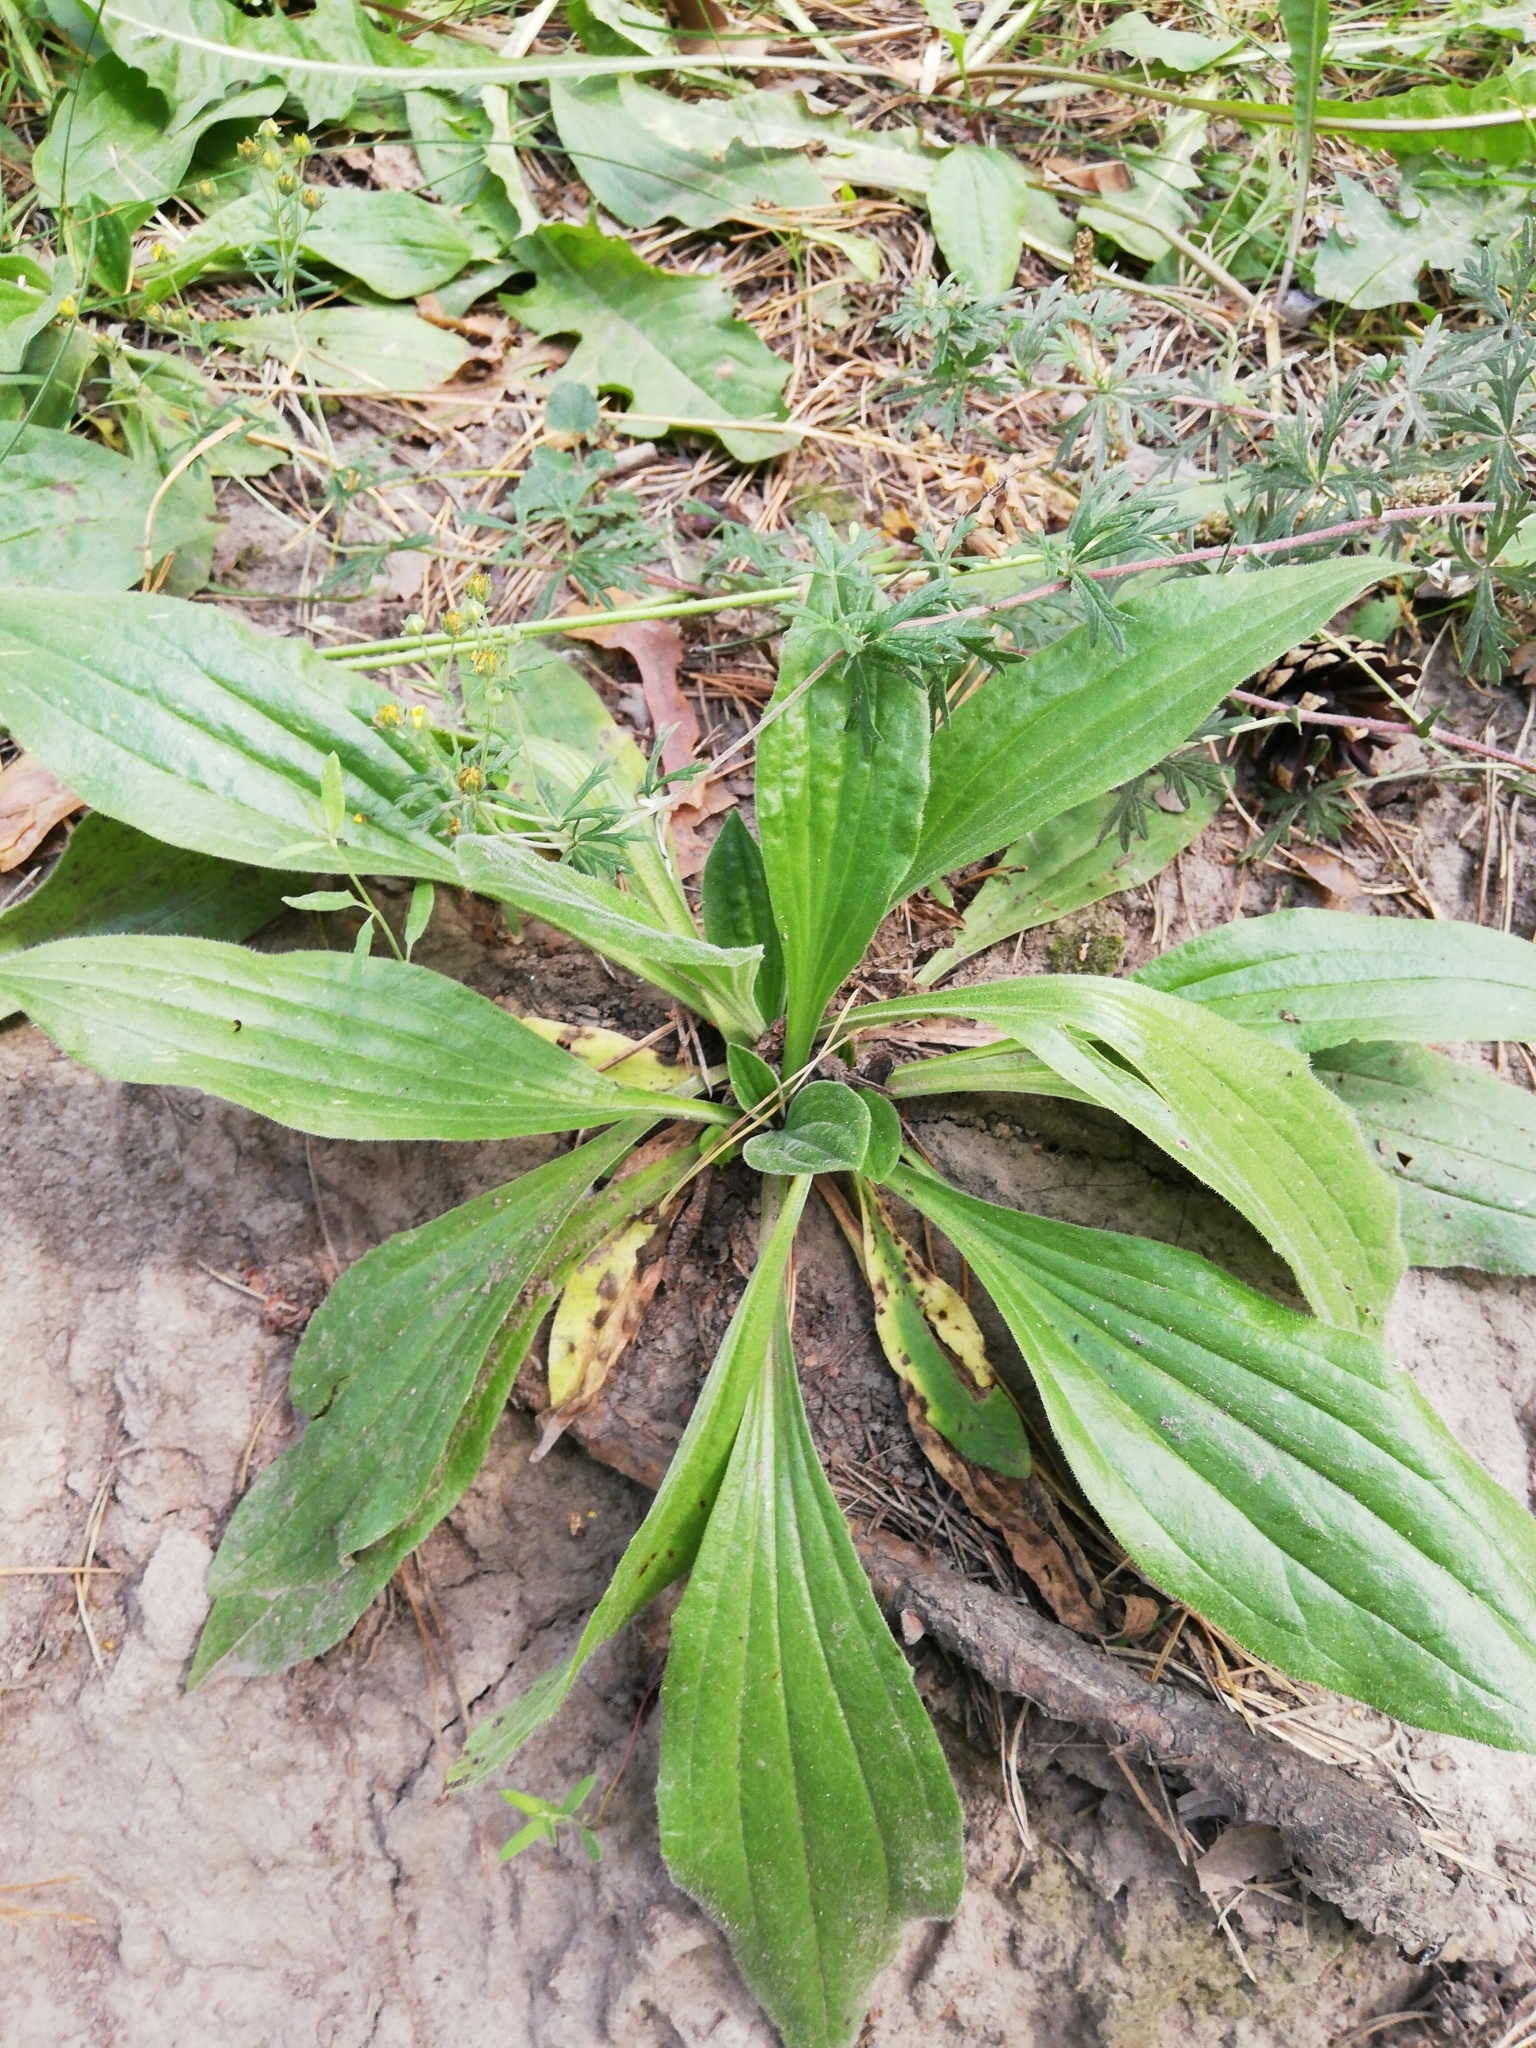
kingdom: Plantae
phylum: Tracheophyta
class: Magnoliopsida
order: Lamiales
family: Plantaginaceae
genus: Plantago
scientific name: Plantago media
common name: Hoary plantain
